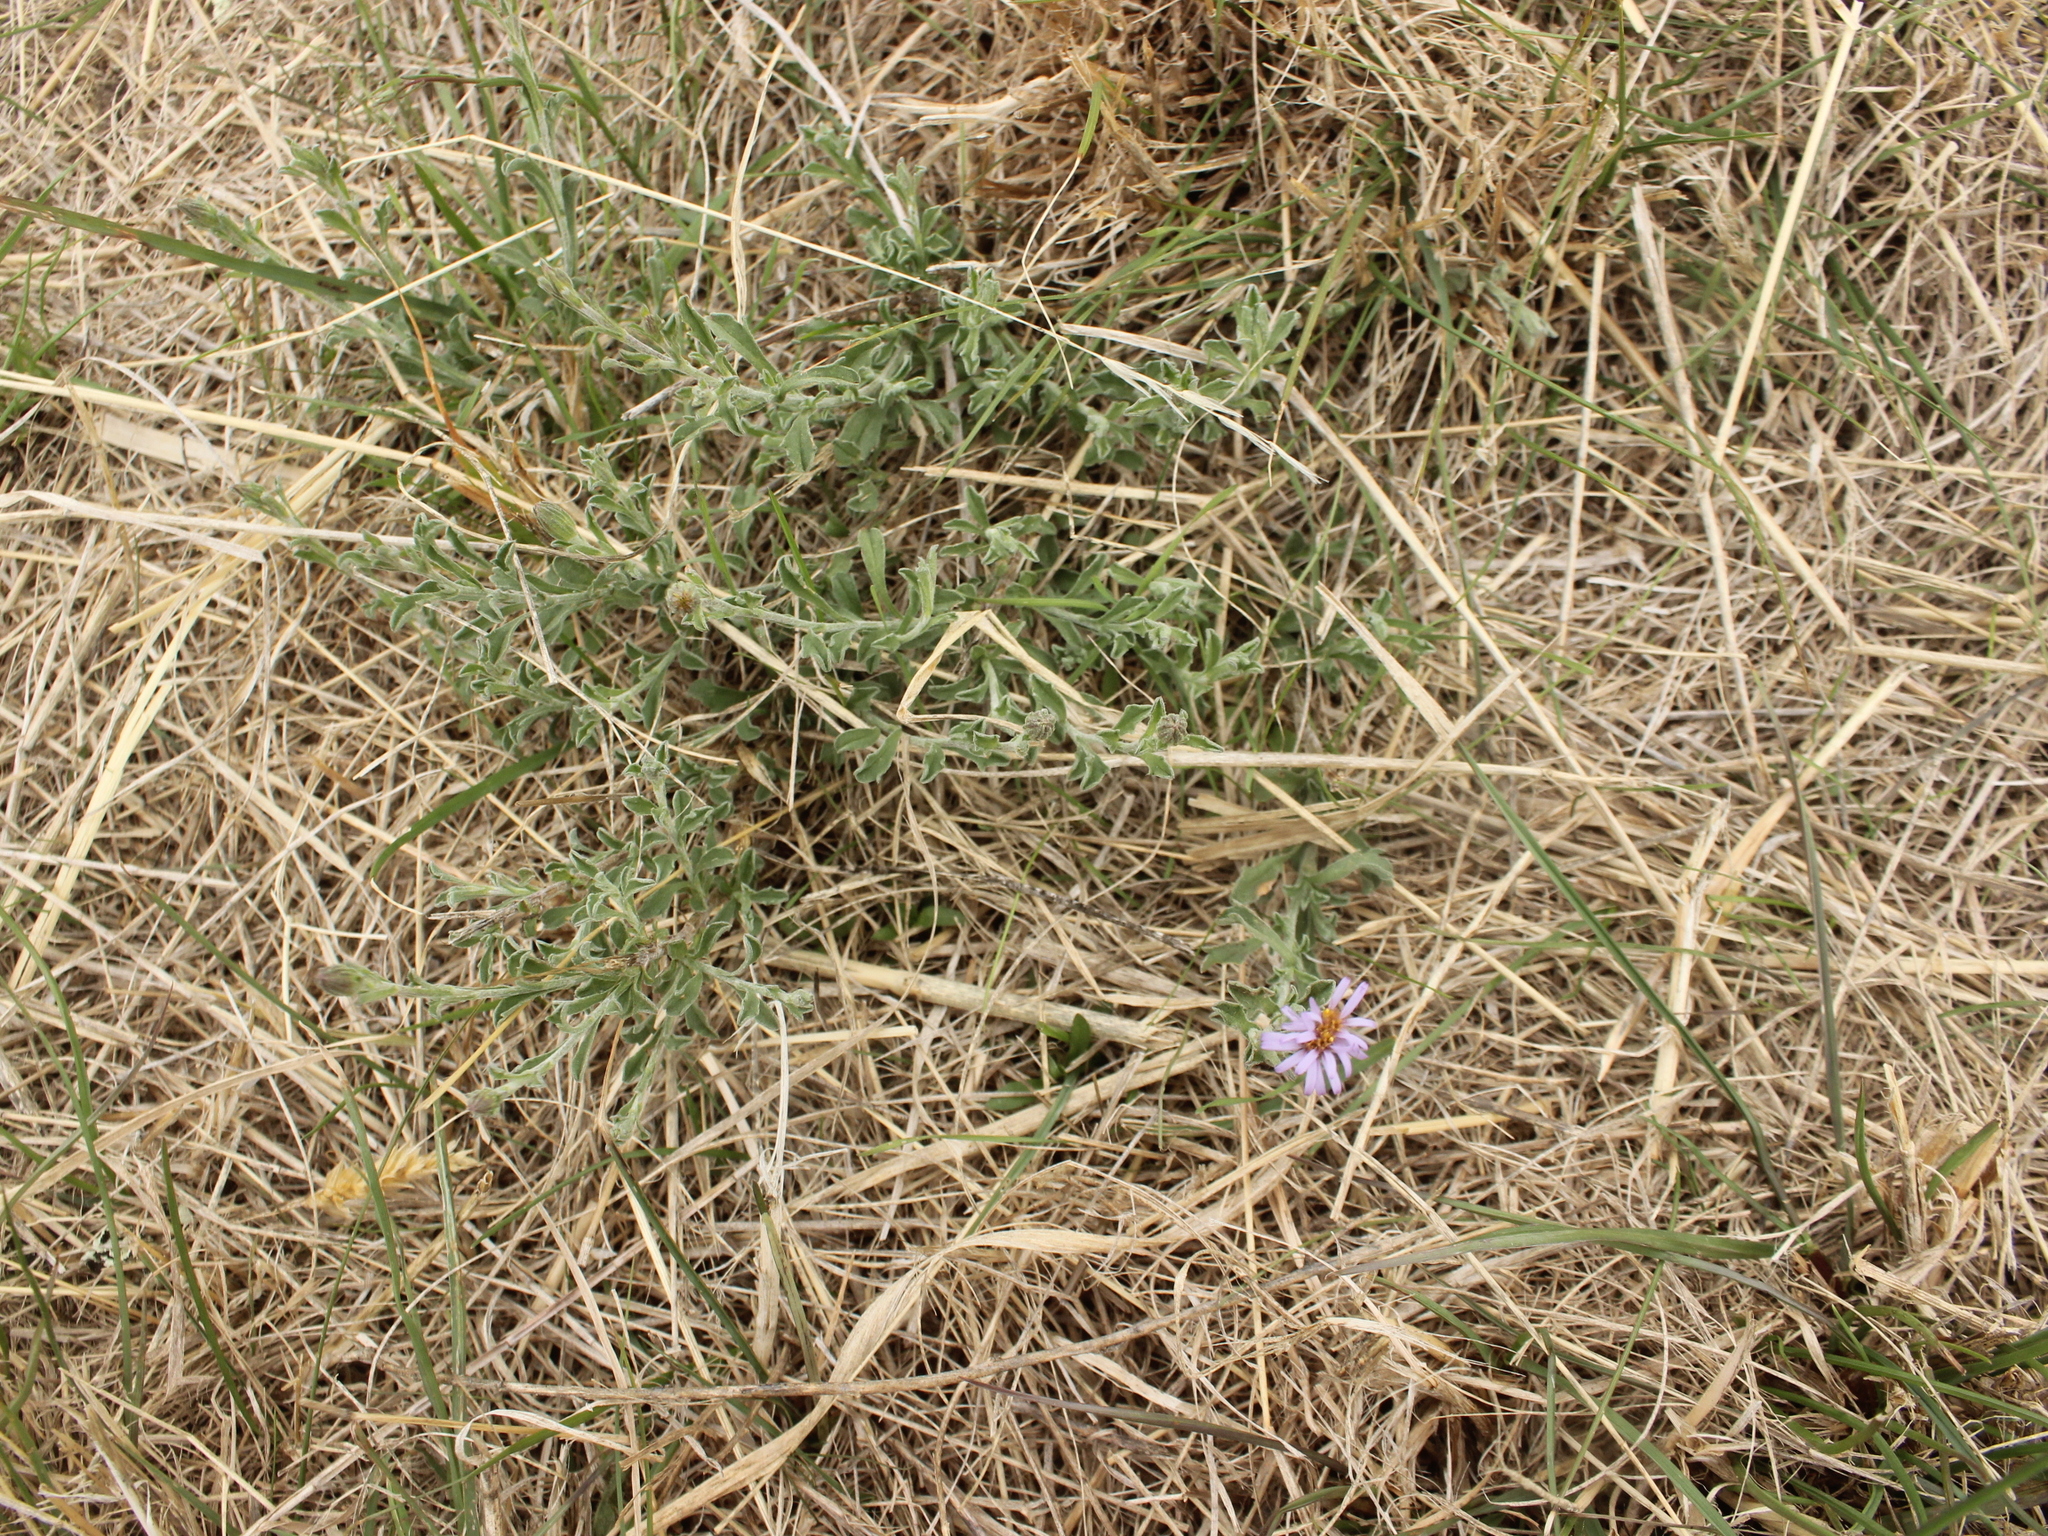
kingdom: Plantae
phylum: Tracheophyta
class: Magnoliopsida
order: Asterales
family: Asteraceae
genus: Vittadinia
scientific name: Vittadinia gracilis
